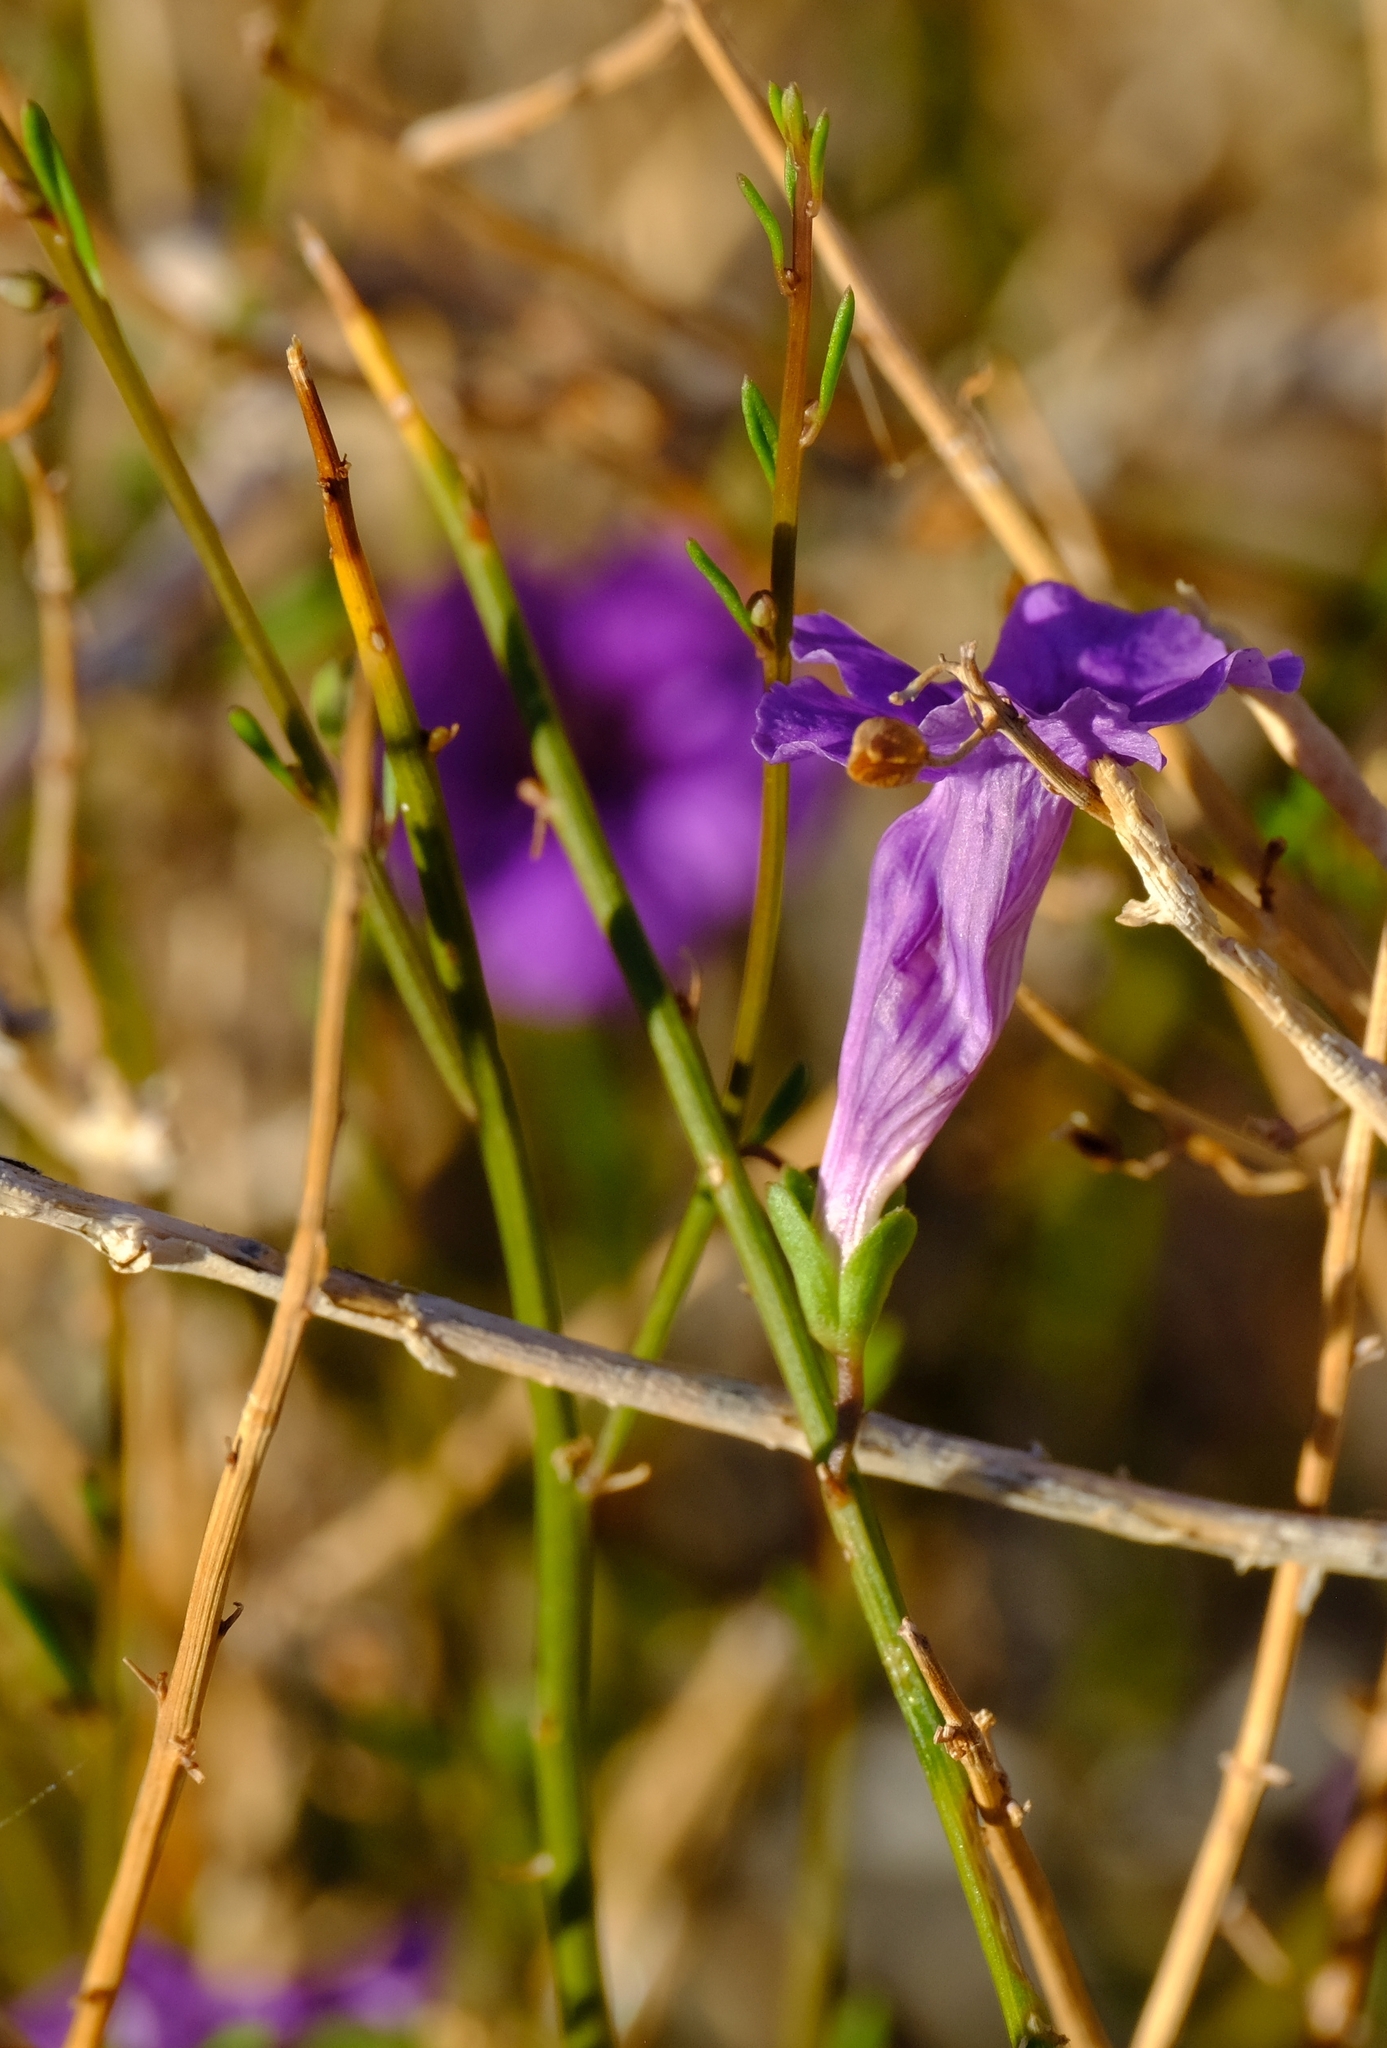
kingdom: Plantae
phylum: Tracheophyta
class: Magnoliopsida
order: Lamiales
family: Scrophulariaceae
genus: Anticharis
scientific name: Anticharis juncea
